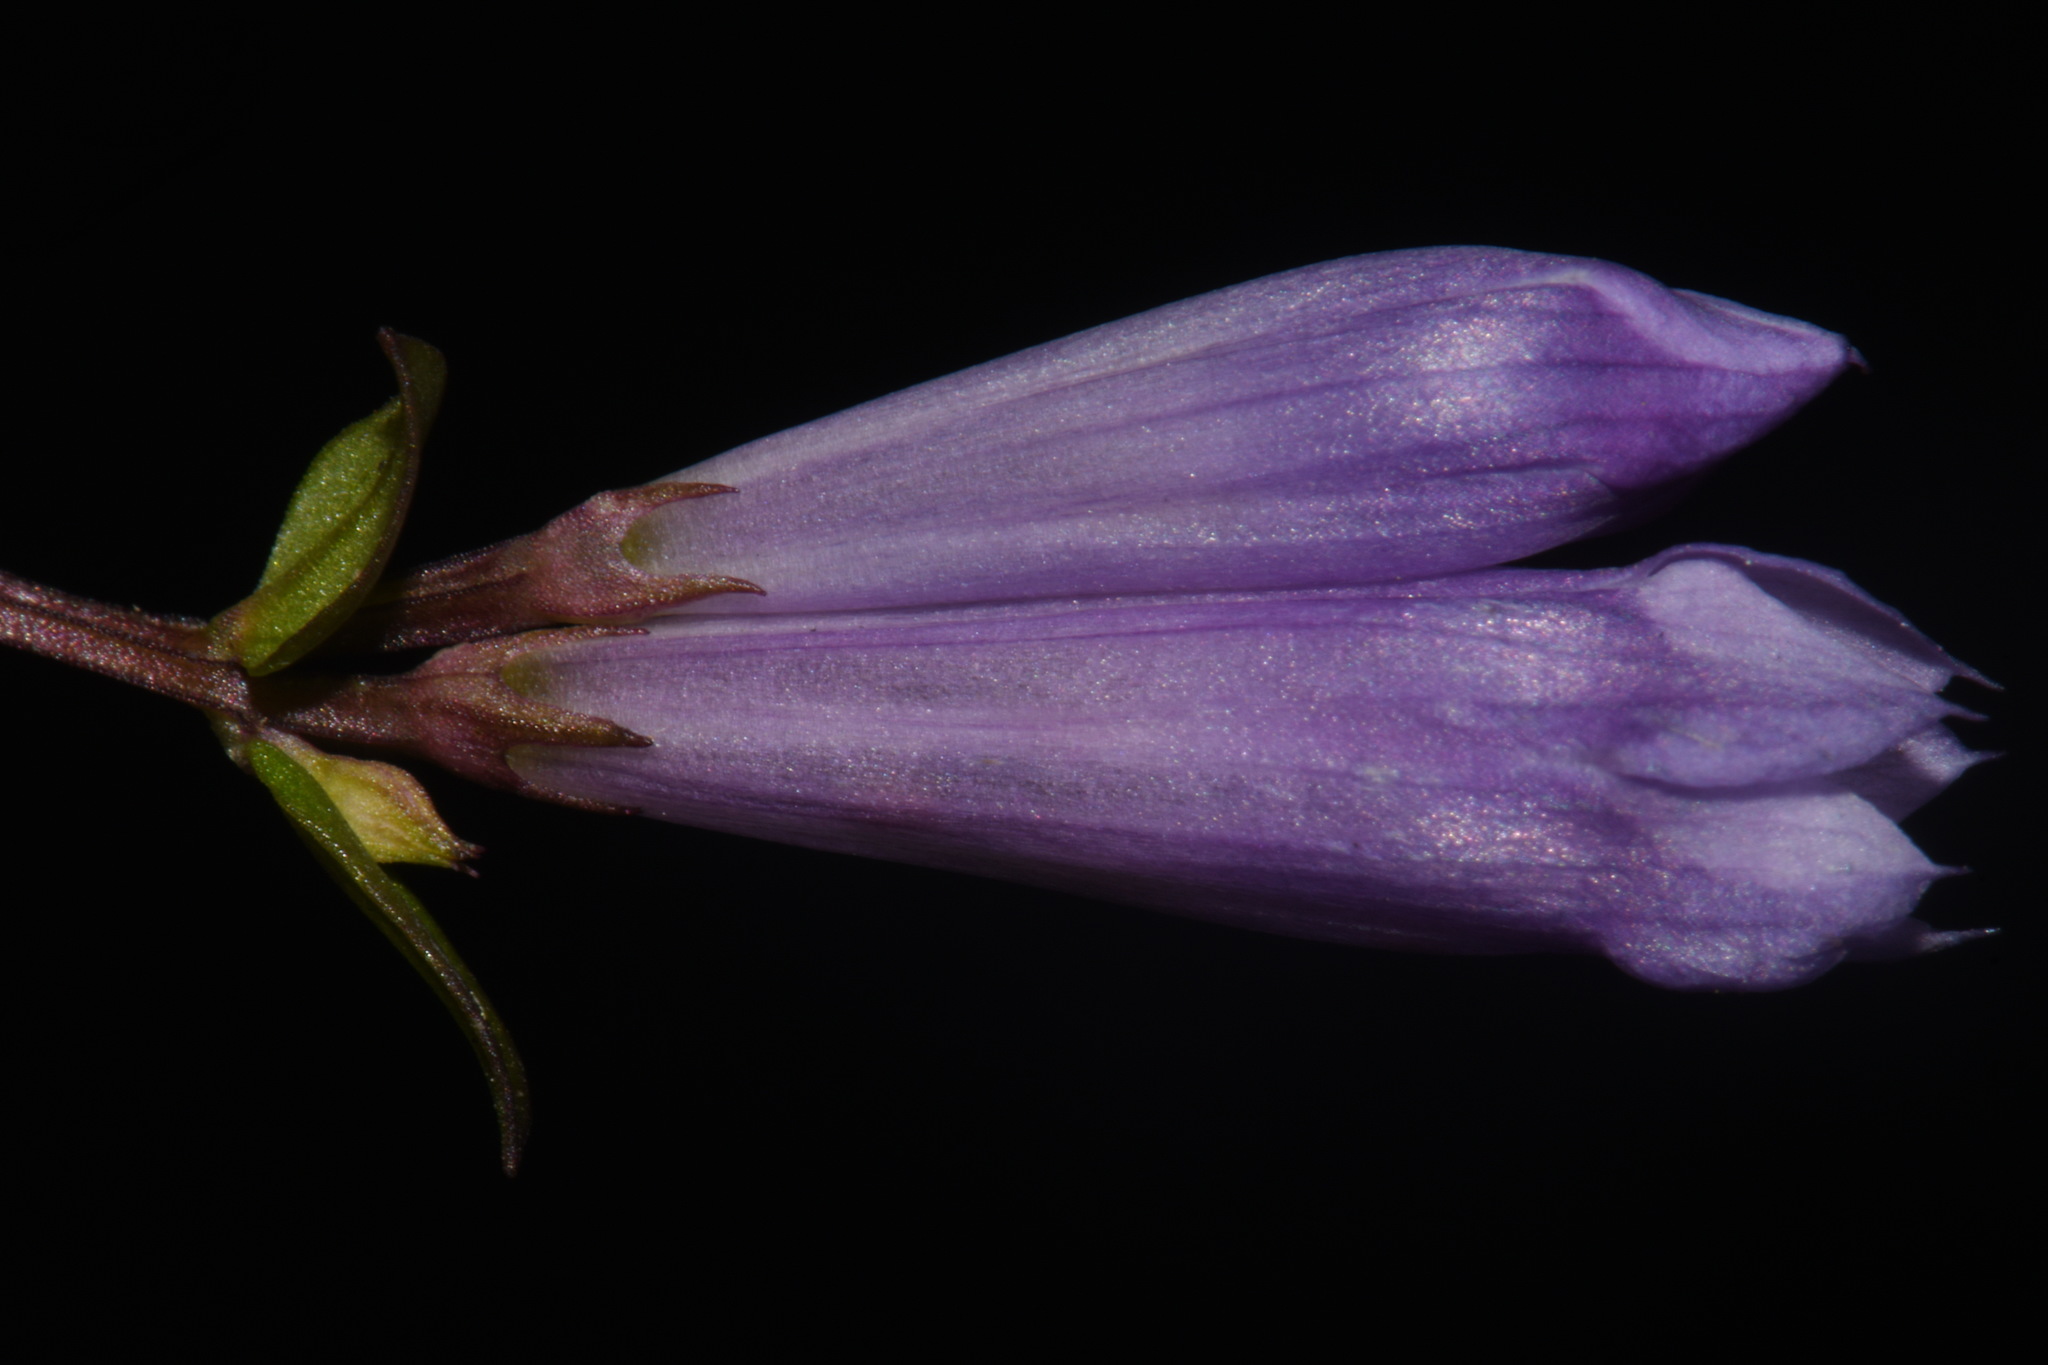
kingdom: Plantae
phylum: Tracheophyta
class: Magnoliopsida
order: Gentianales
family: Gentianaceae
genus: Gentianella
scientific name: Gentianella quinquefolia
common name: Agueweed
